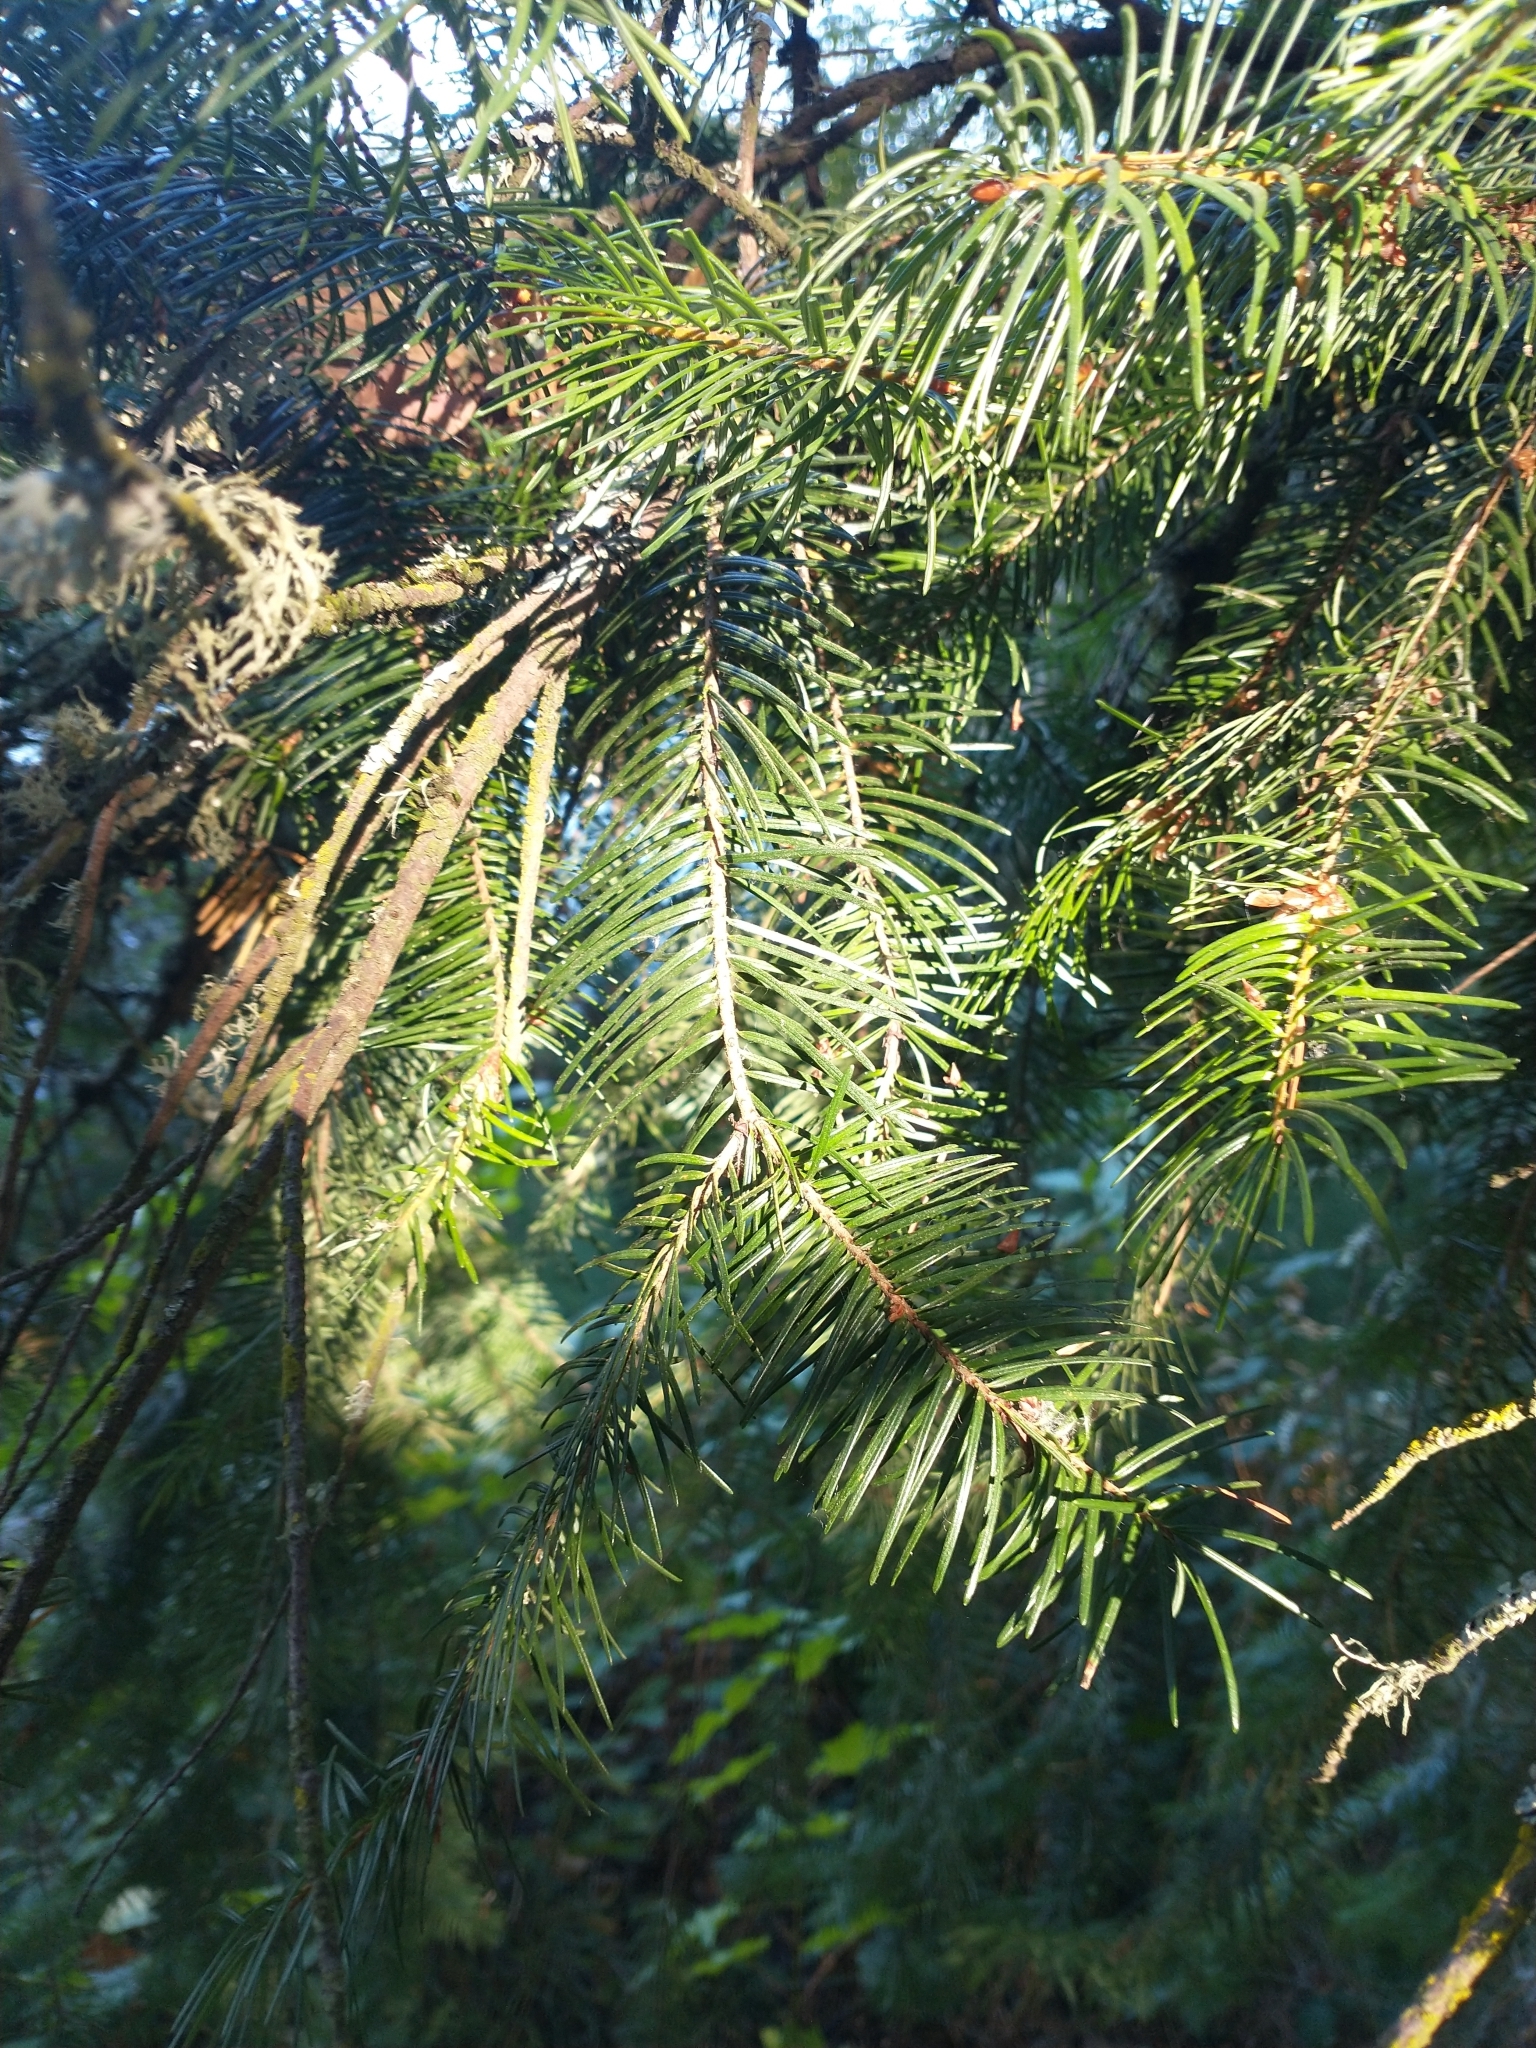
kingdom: Plantae
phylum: Tracheophyta
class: Pinopsida
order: Pinales
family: Pinaceae
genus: Pseudotsuga
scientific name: Pseudotsuga menziesii
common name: Douglas fir
